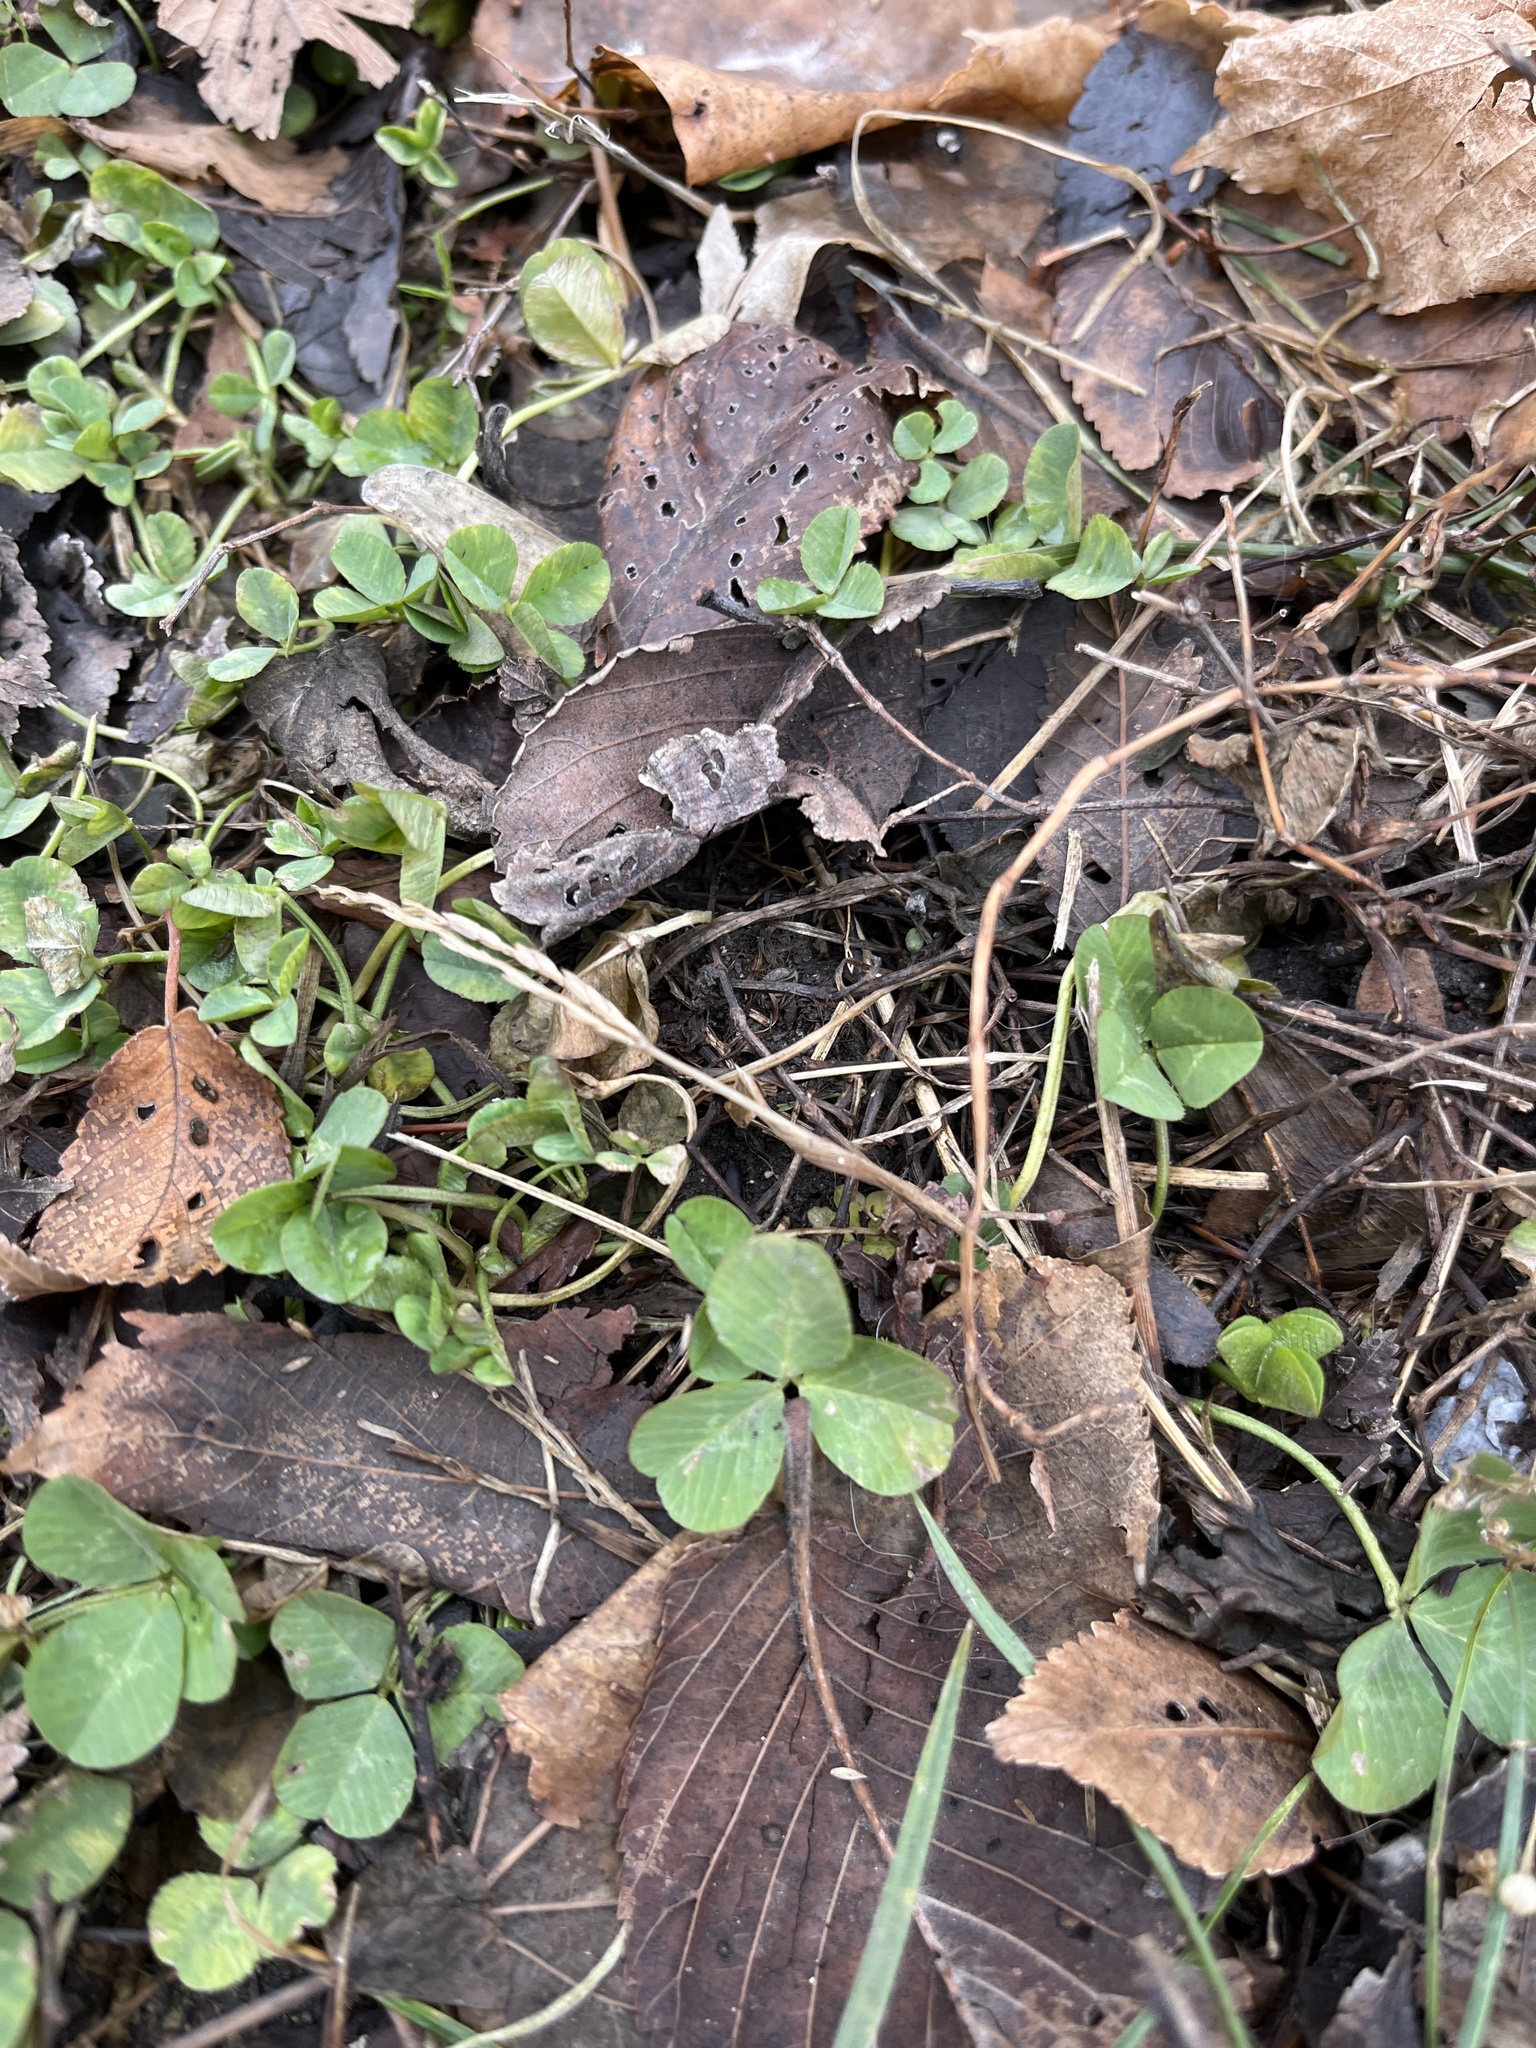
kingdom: Plantae
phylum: Tracheophyta
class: Magnoliopsida
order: Fabales
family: Fabaceae
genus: Trifolium
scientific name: Trifolium repens
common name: White clover
